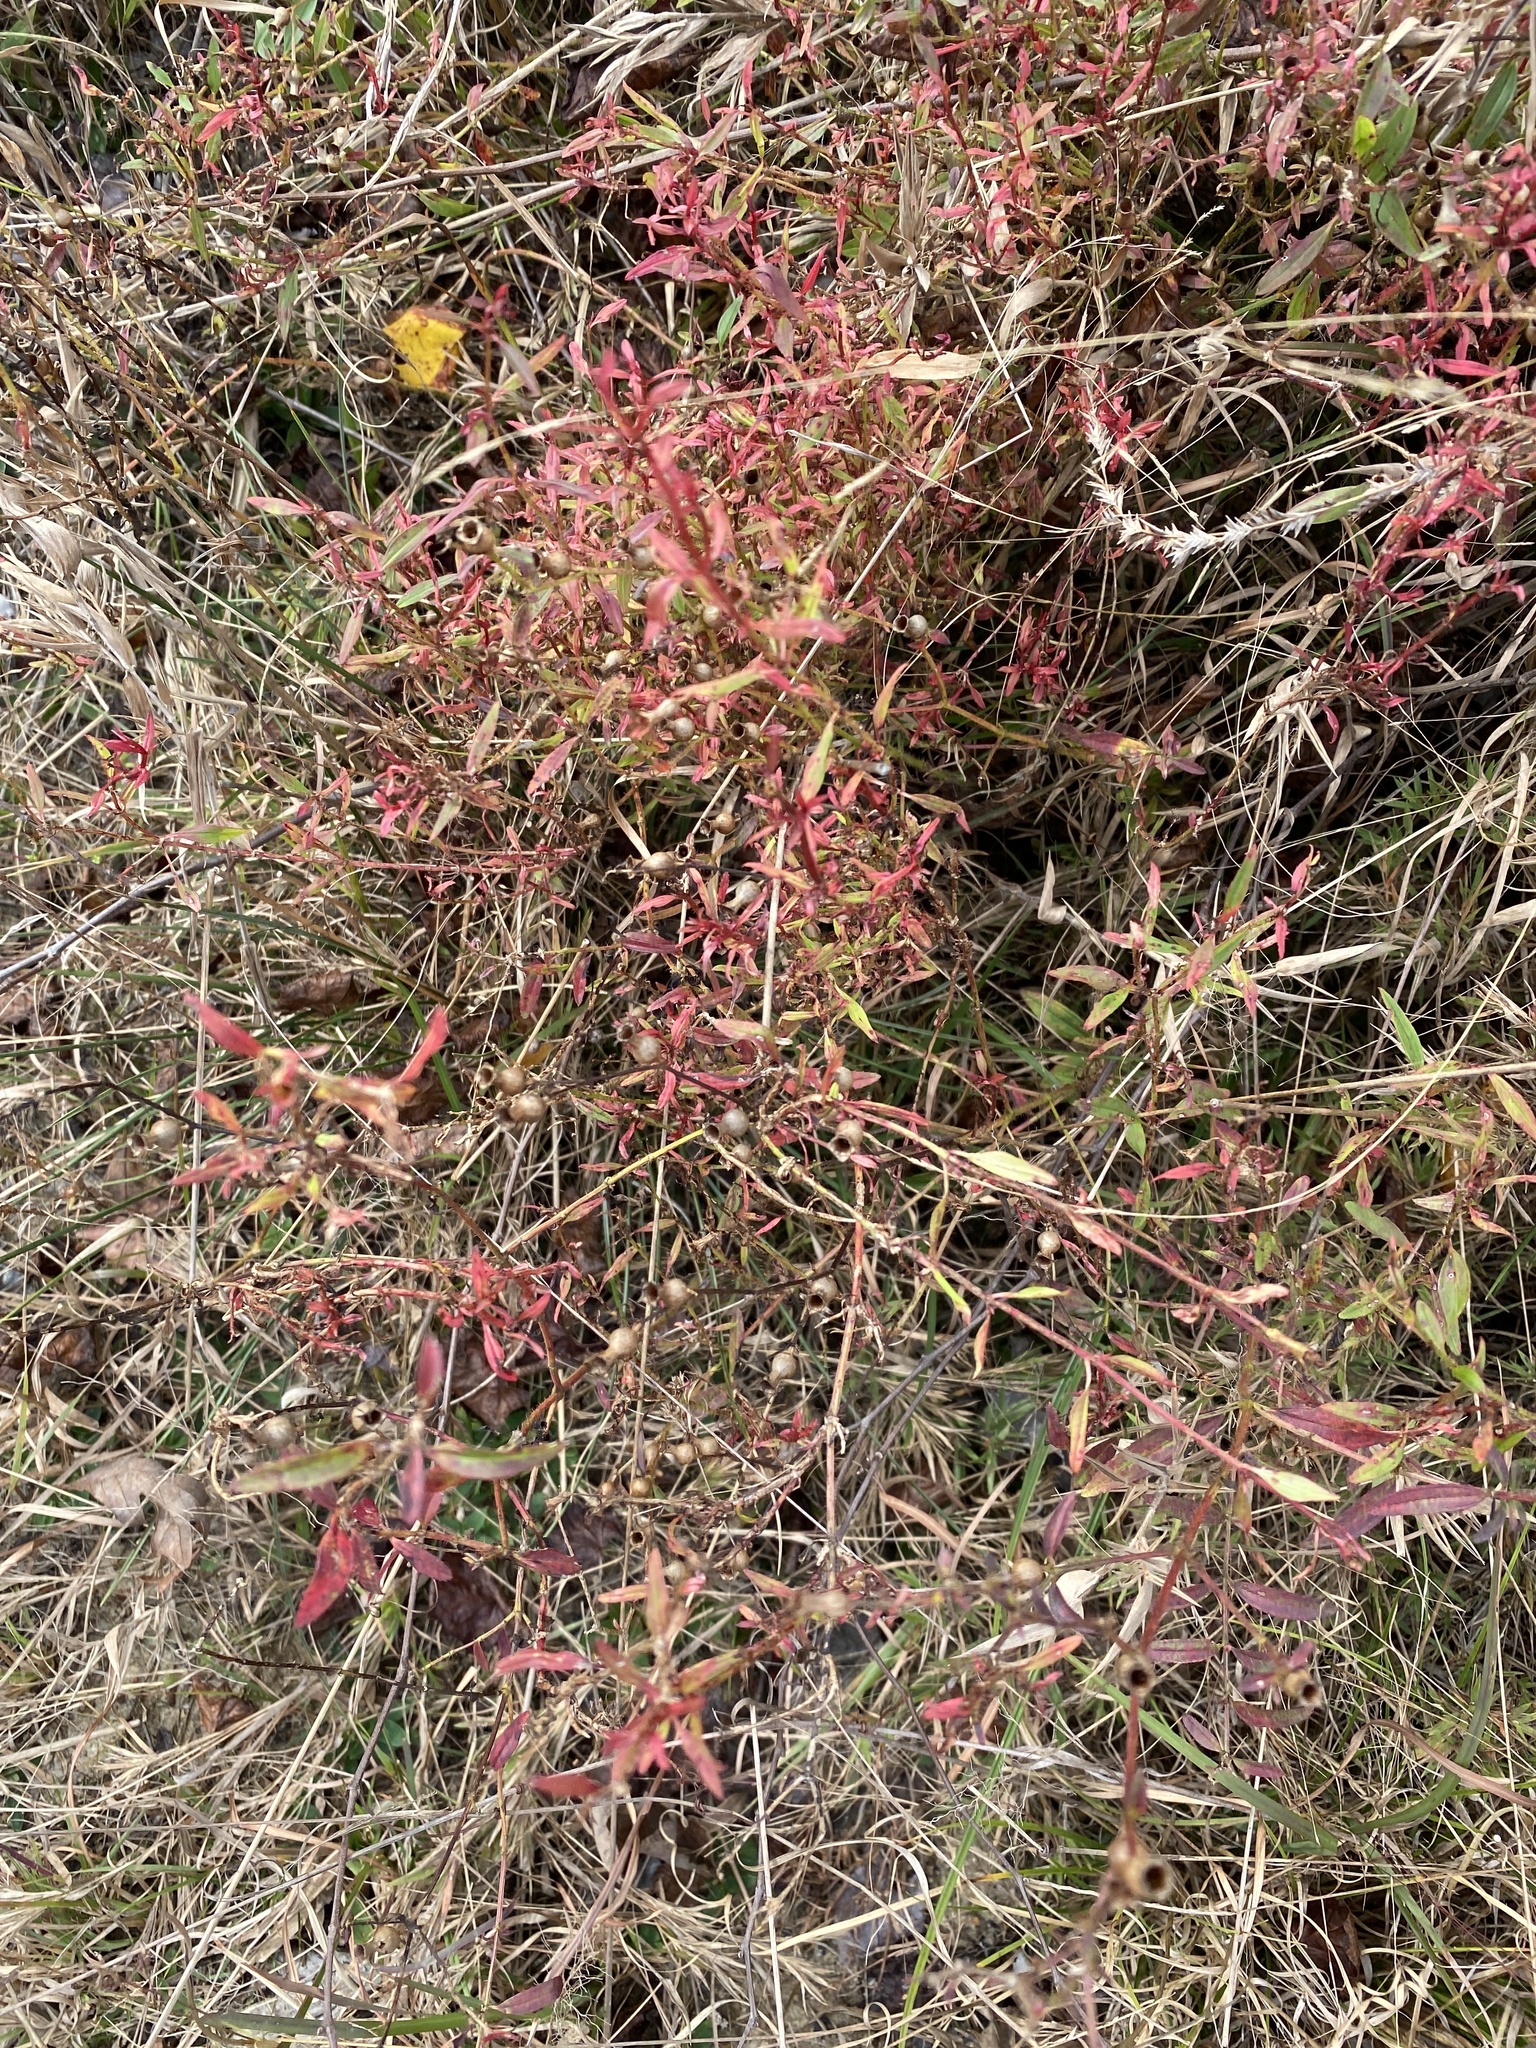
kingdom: Plantae
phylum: Tracheophyta
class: Magnoliopsida
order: Myrtales
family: Melastomataceae
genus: Rhexia
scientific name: Rhexia mariana
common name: Dull meadow-pitcher
